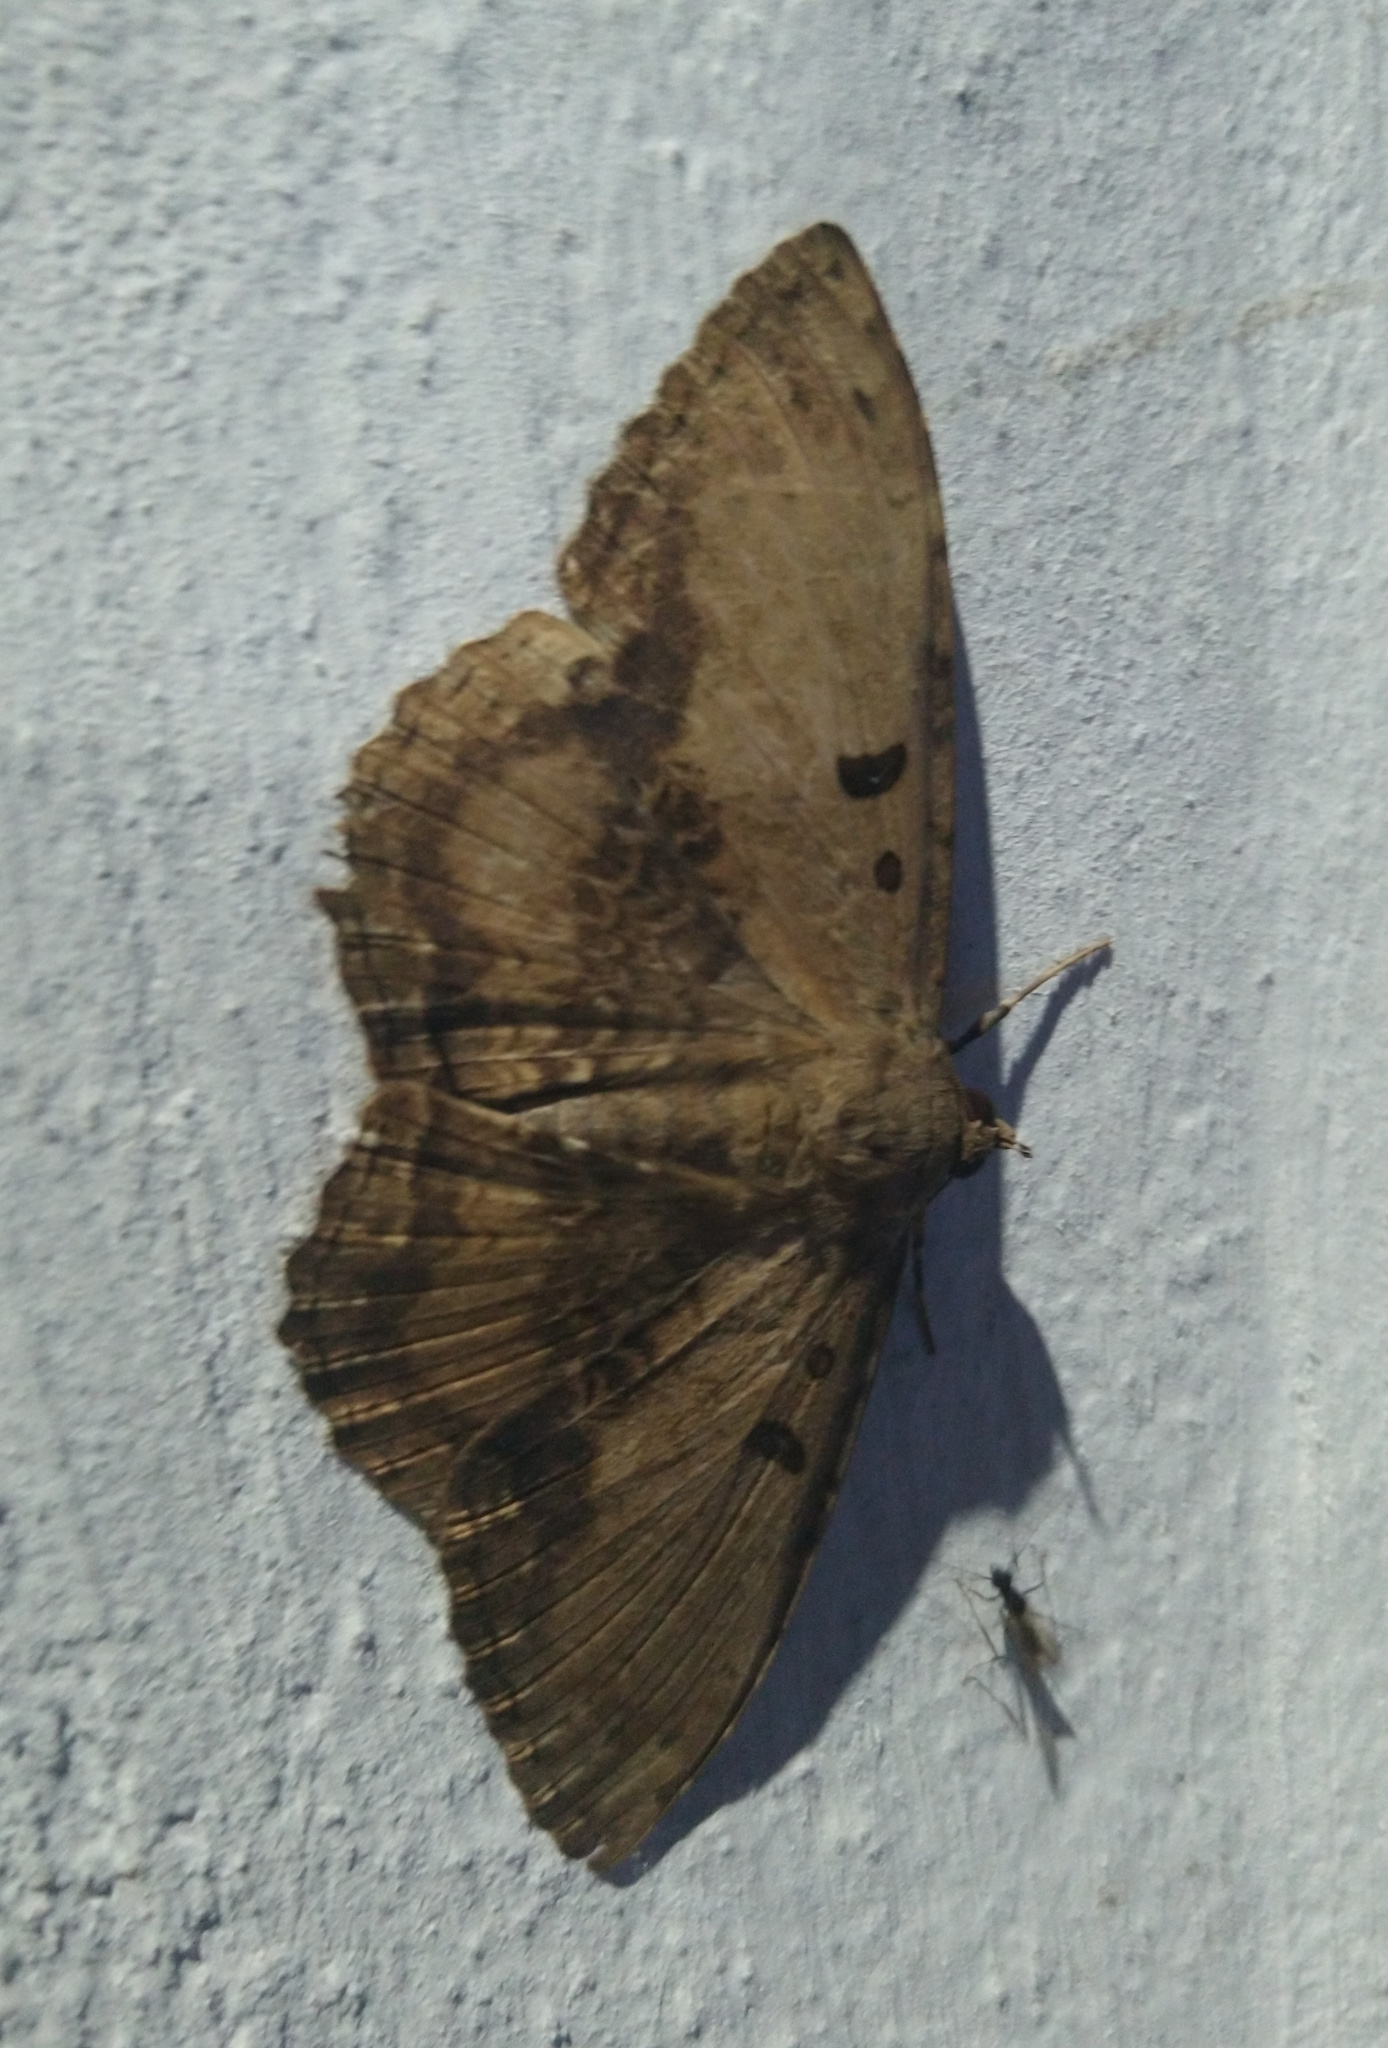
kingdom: Animalia
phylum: Arthropoda
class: Insecta
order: Lepidoptera
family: Erebidae
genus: Feigeria
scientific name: Feigeria magna
